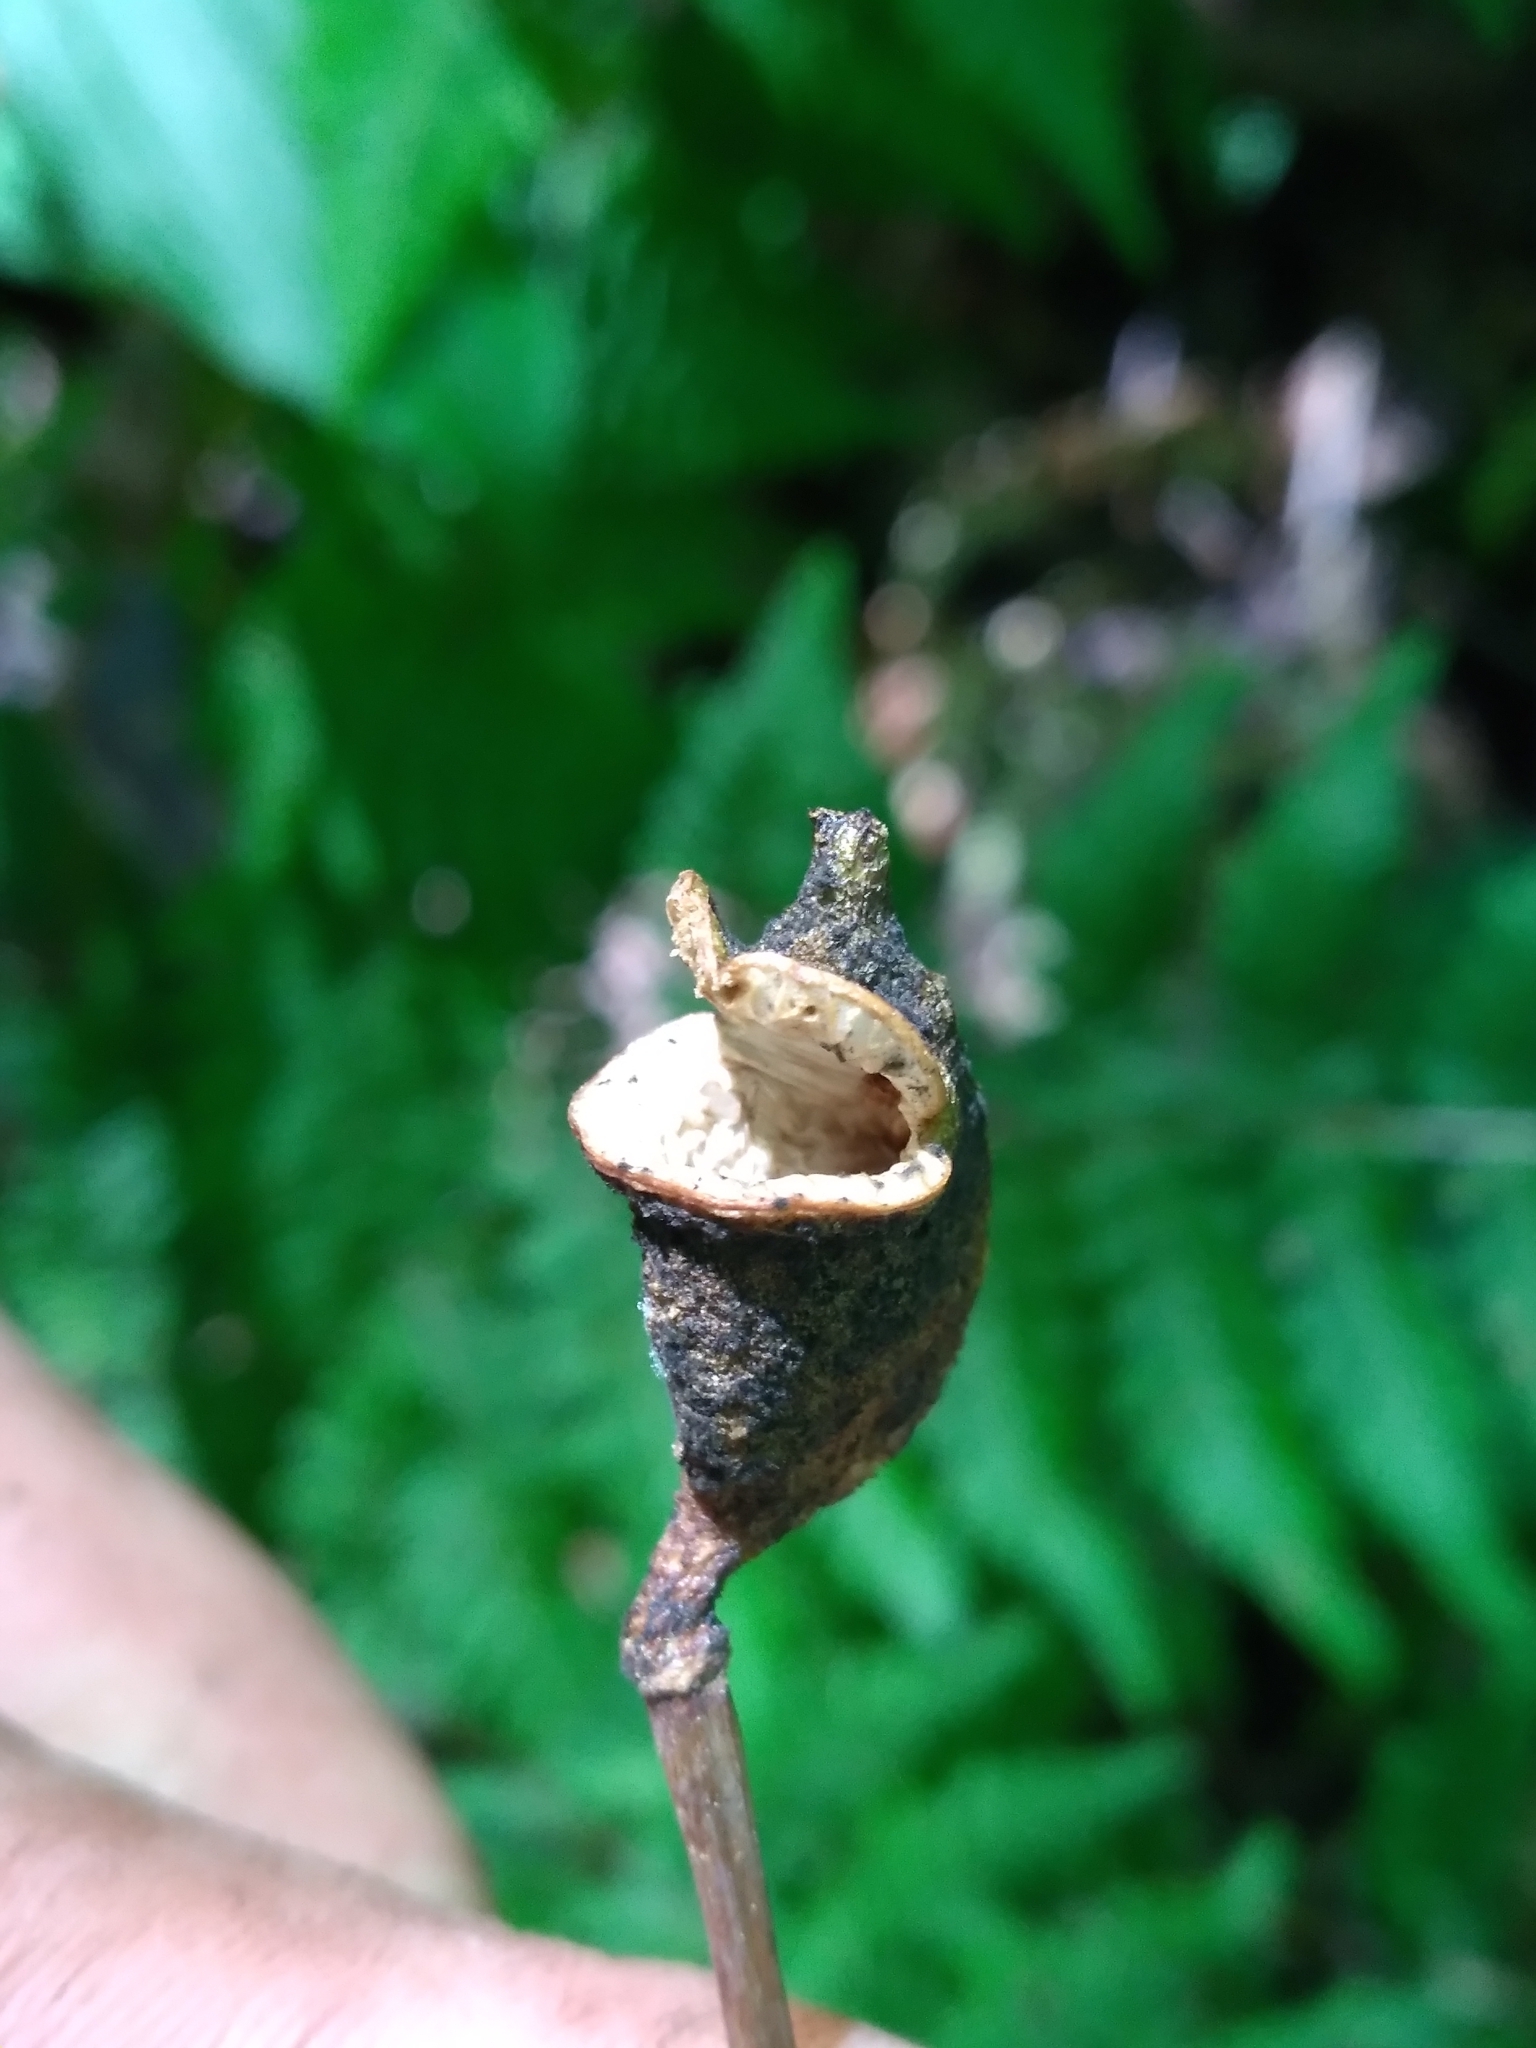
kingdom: Plantae
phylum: Tracheophyta
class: Magnoliopsida
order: Ranunculales
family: Berberidaceae
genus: Jeffersonia
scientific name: Jeffersonia diphylla
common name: Rheumatism-root
